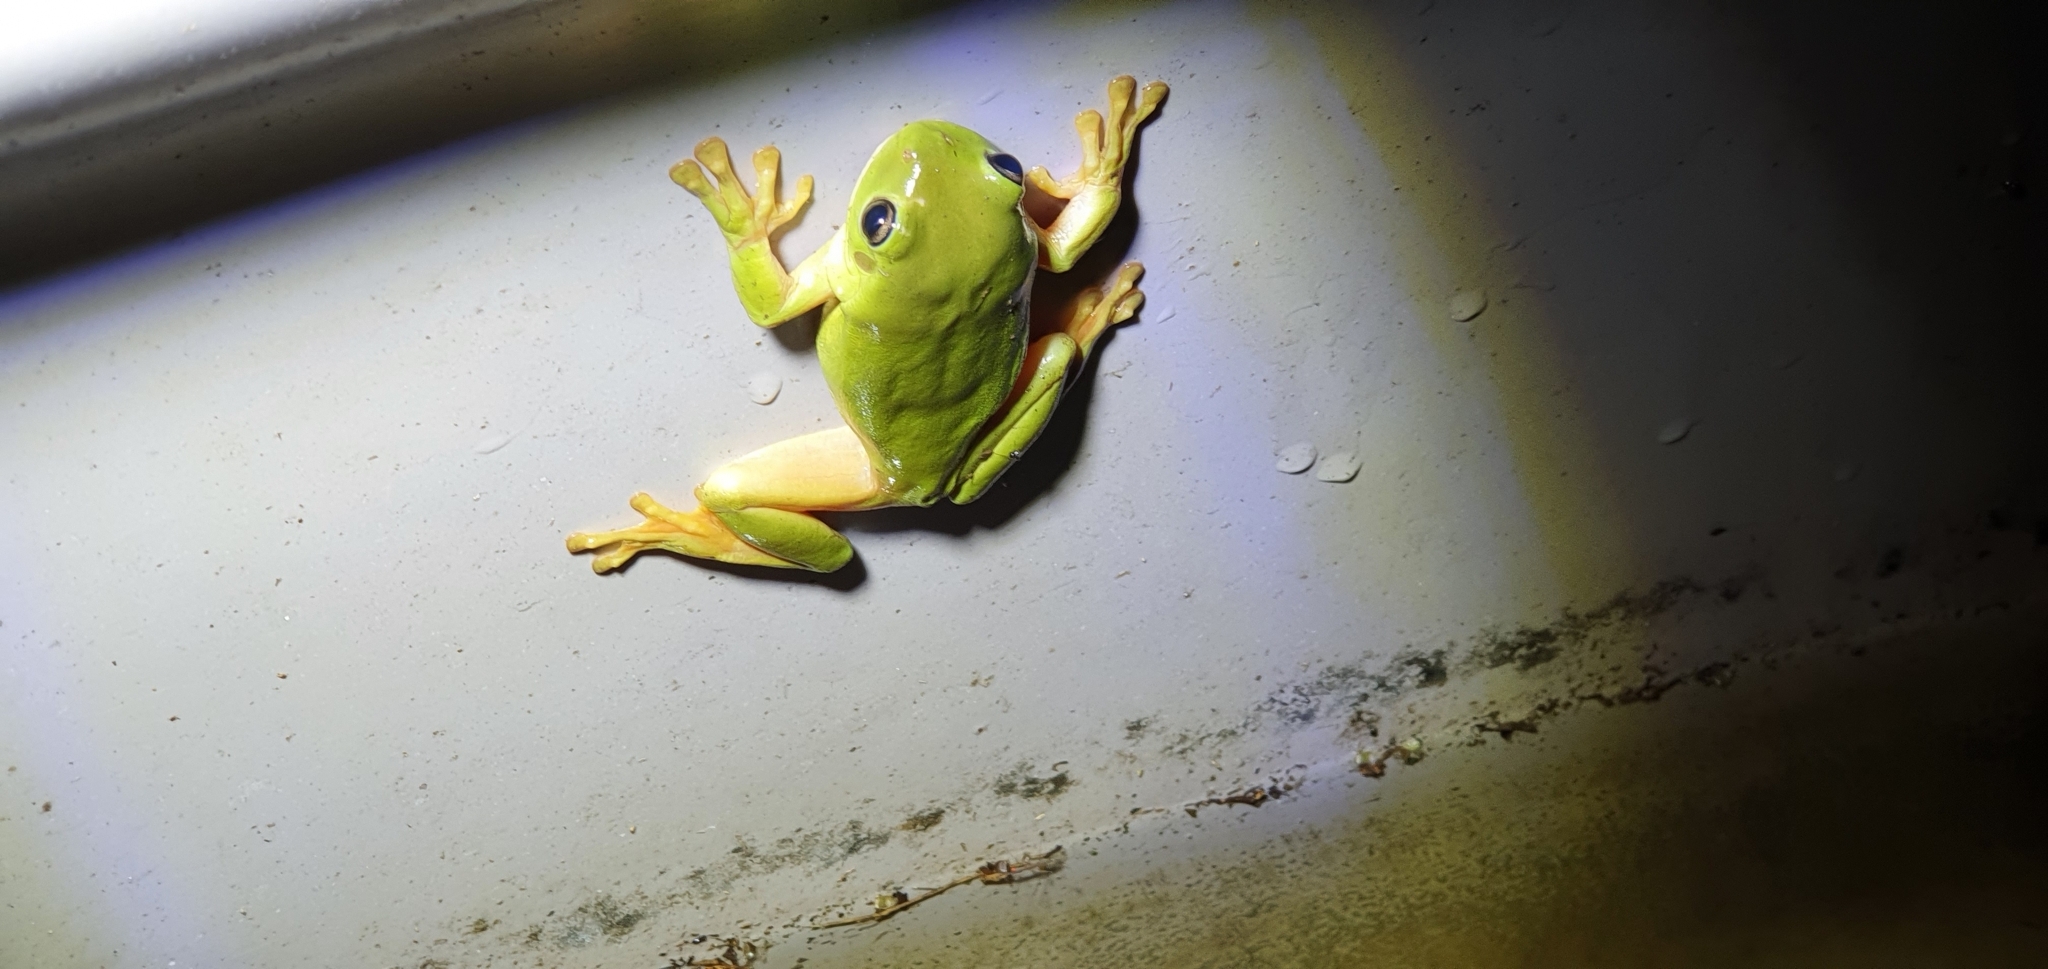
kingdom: Animalia
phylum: Chordata
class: Amphibia
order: Anura
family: Pelodryadidae
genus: Ranoidea
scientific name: Ranoidea caerulea
